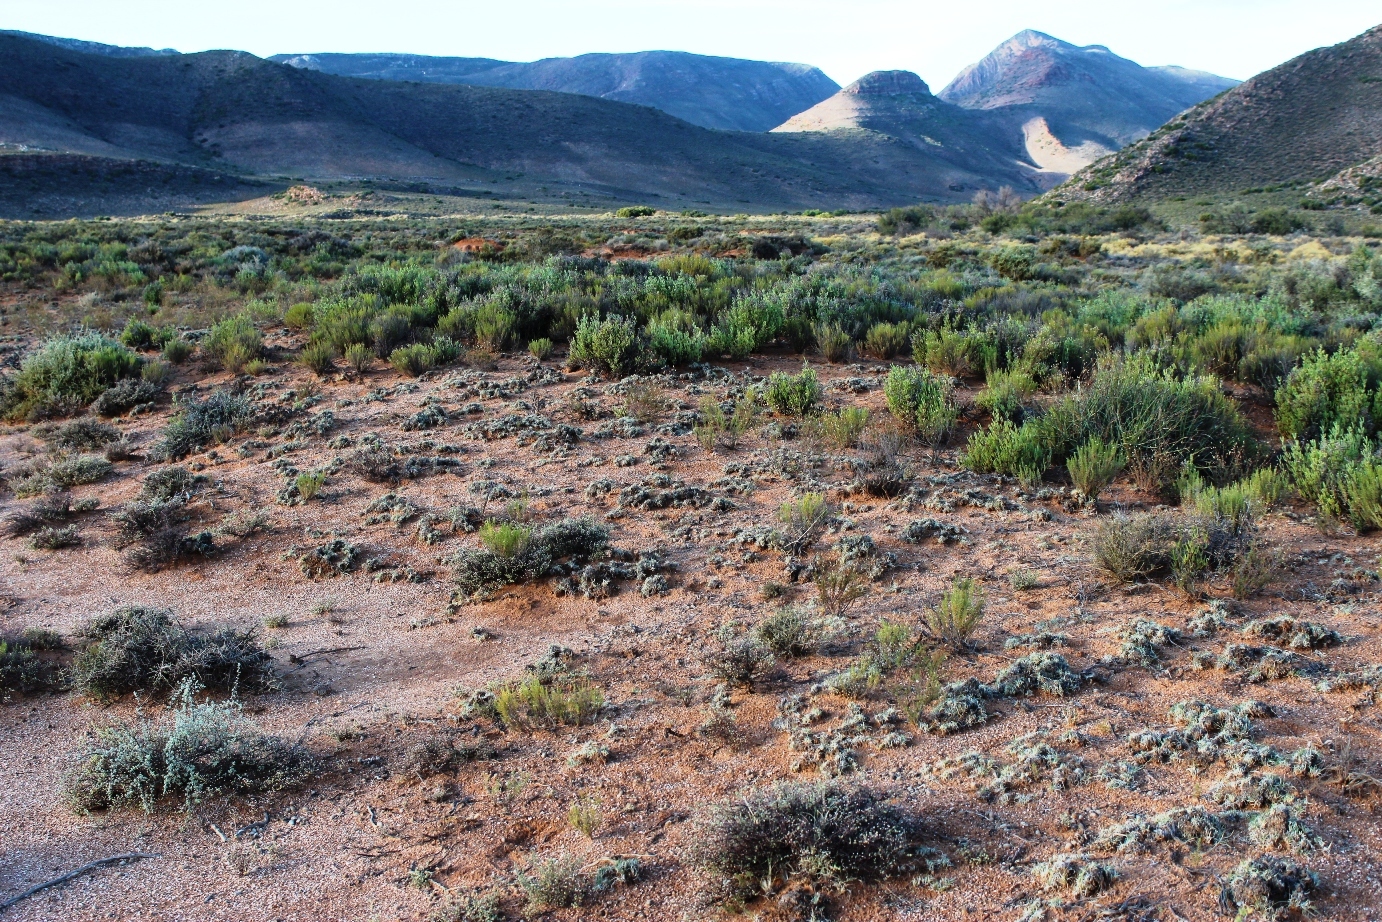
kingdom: Plantae
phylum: Tracheophyta
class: Liliopsida
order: Poales
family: Poaceae
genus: Stipagrostis
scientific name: Stipagrostis obtusa
